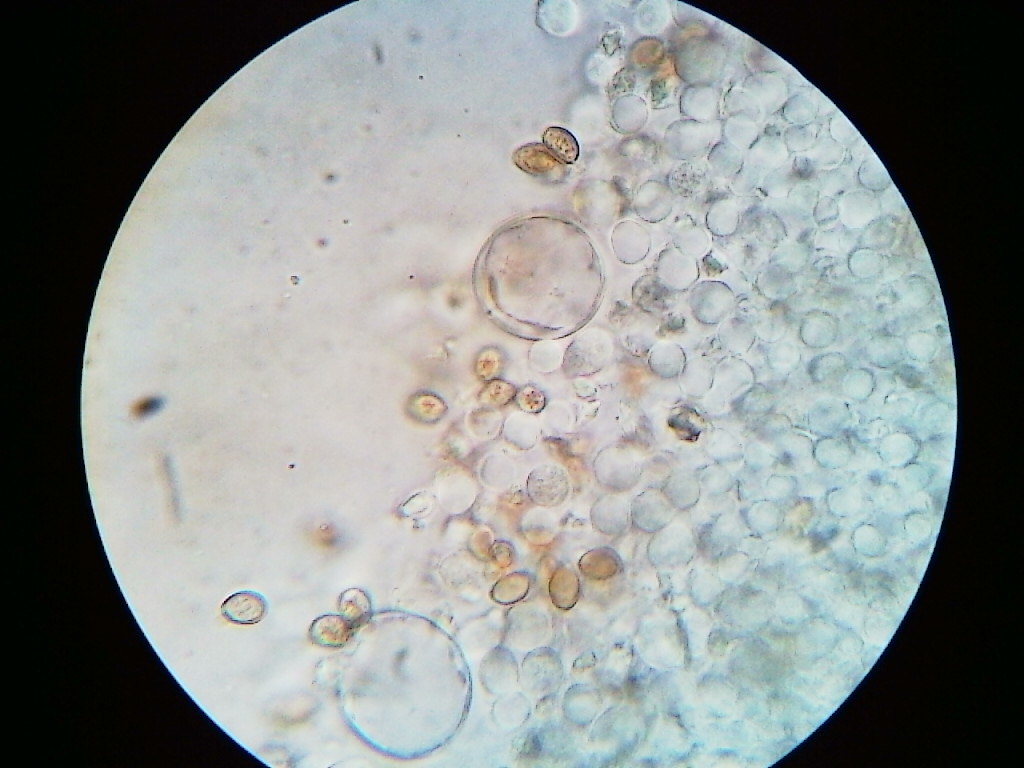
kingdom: Fungi
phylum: Basidiomycota
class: Agaricomycetes
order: Agaricales
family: Strophariaceae
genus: Agrocybe
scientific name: Agrocybe praecox
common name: Spring fieldcap
